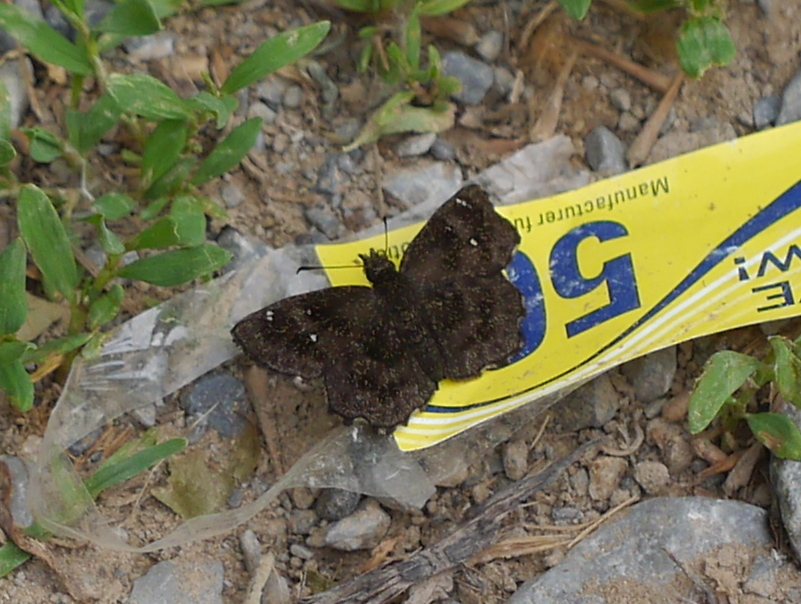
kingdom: Animalia
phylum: Arthropoda
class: Insecta
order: Lepidoptera
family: Hesperiidae
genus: Staphylus
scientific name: Staphylus mazans
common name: Mazans scallopwing
